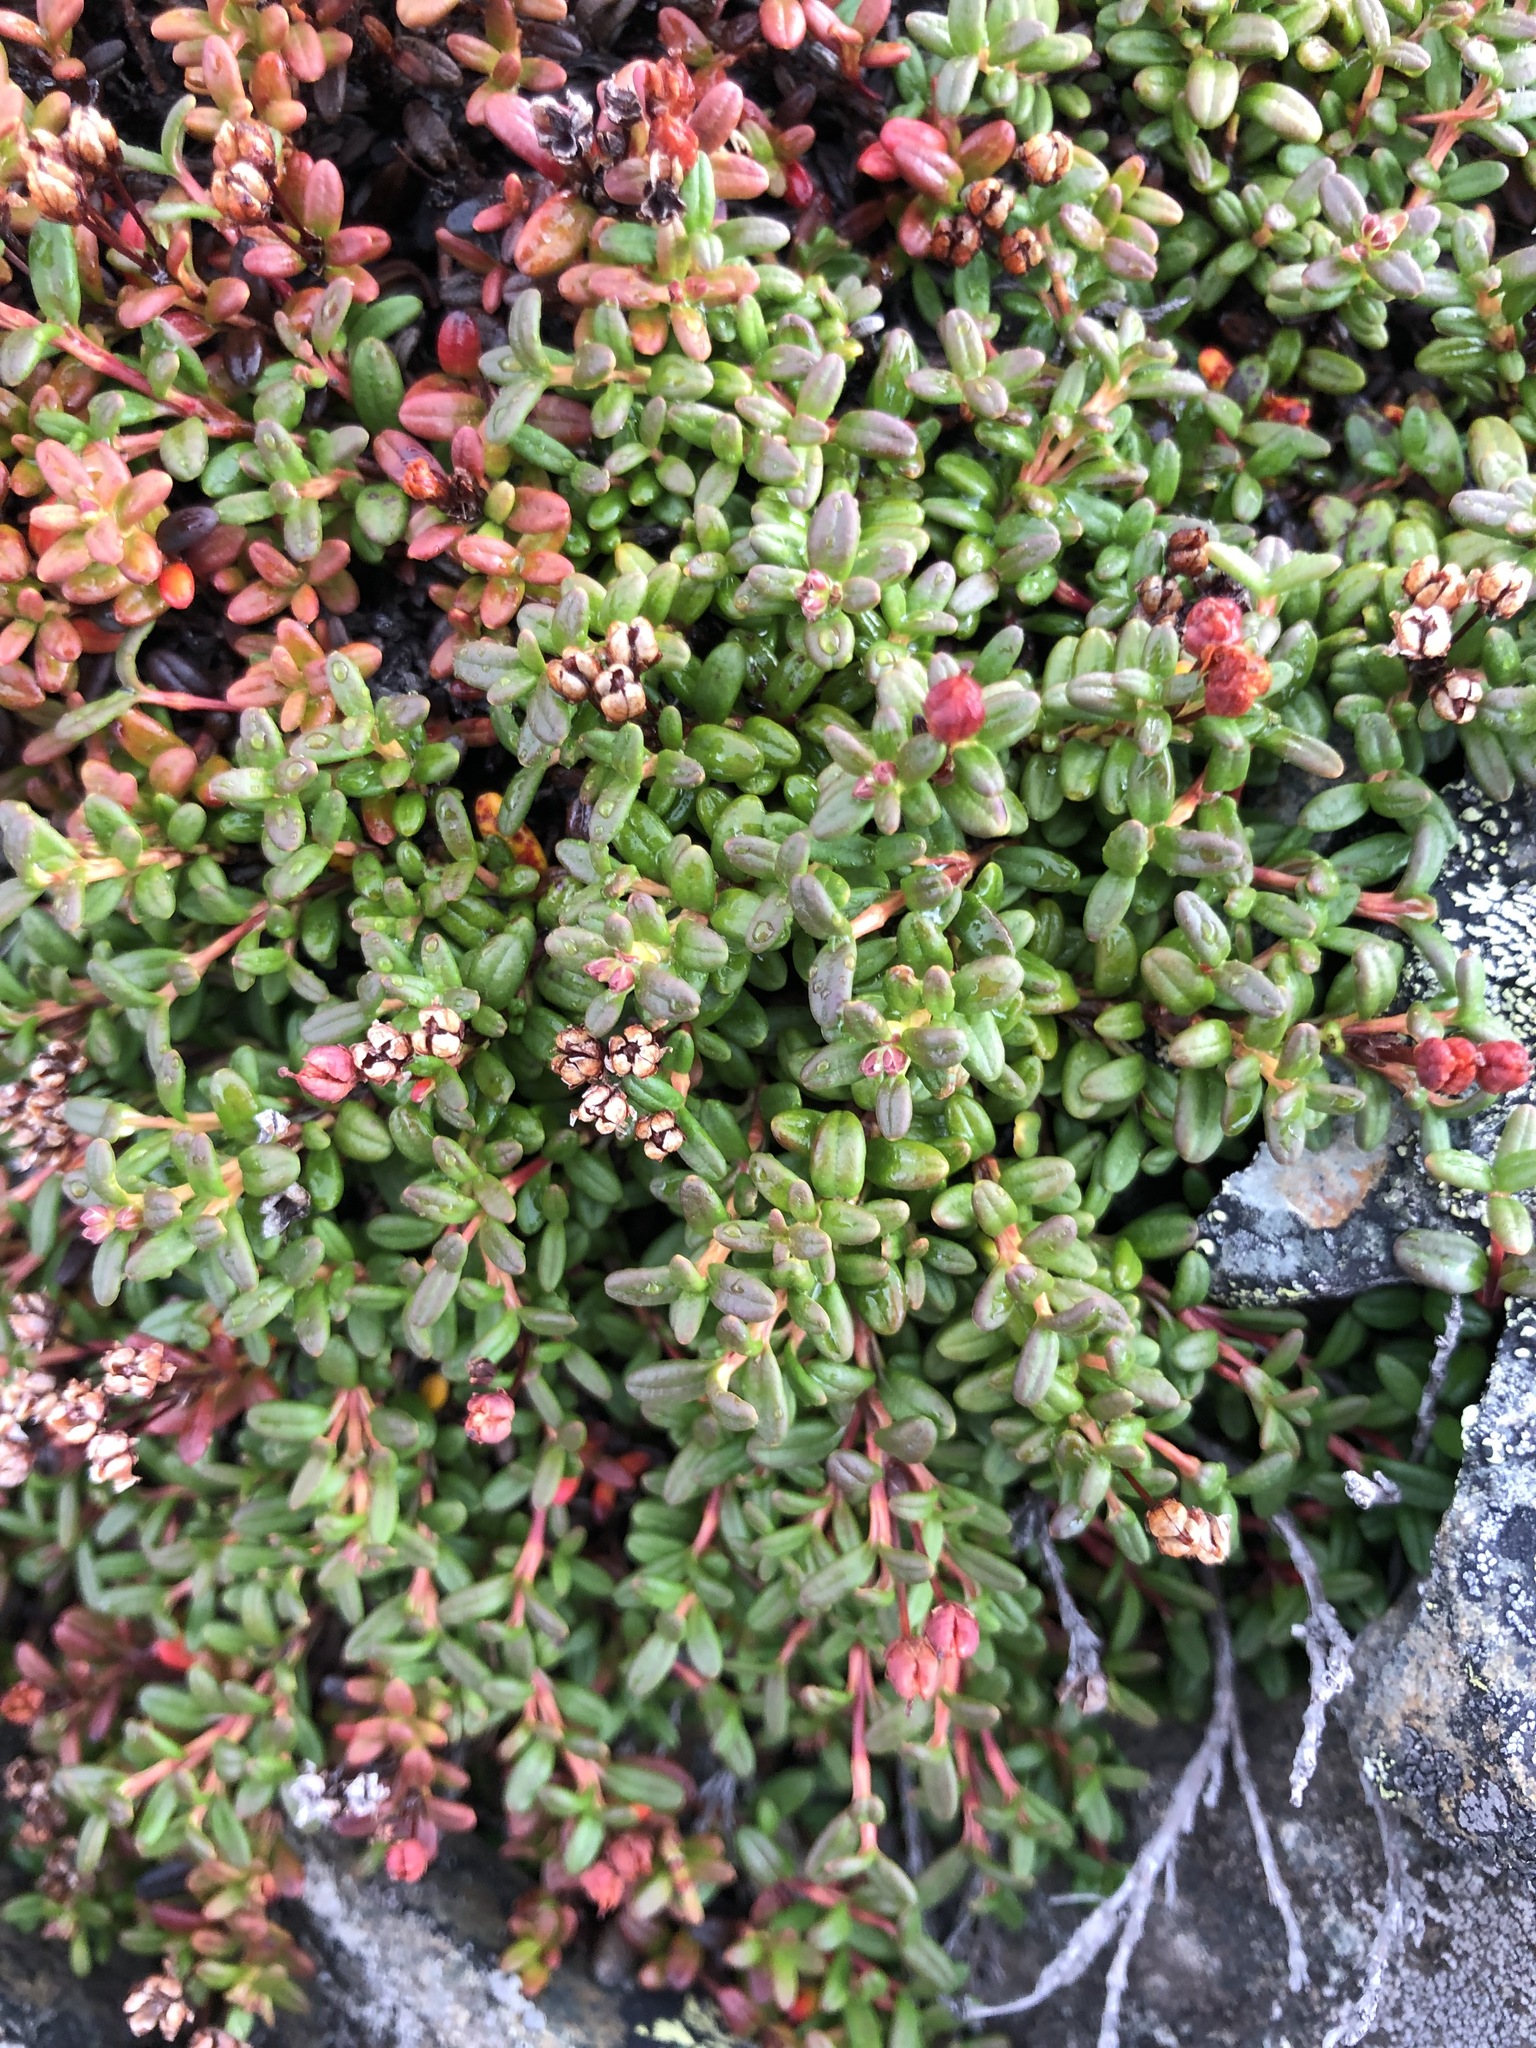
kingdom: Plantae
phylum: Tracheophyta
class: Magnoliopsida
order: Ericales
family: Ericaceae
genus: Kalmia
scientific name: Kalmia procumbens
